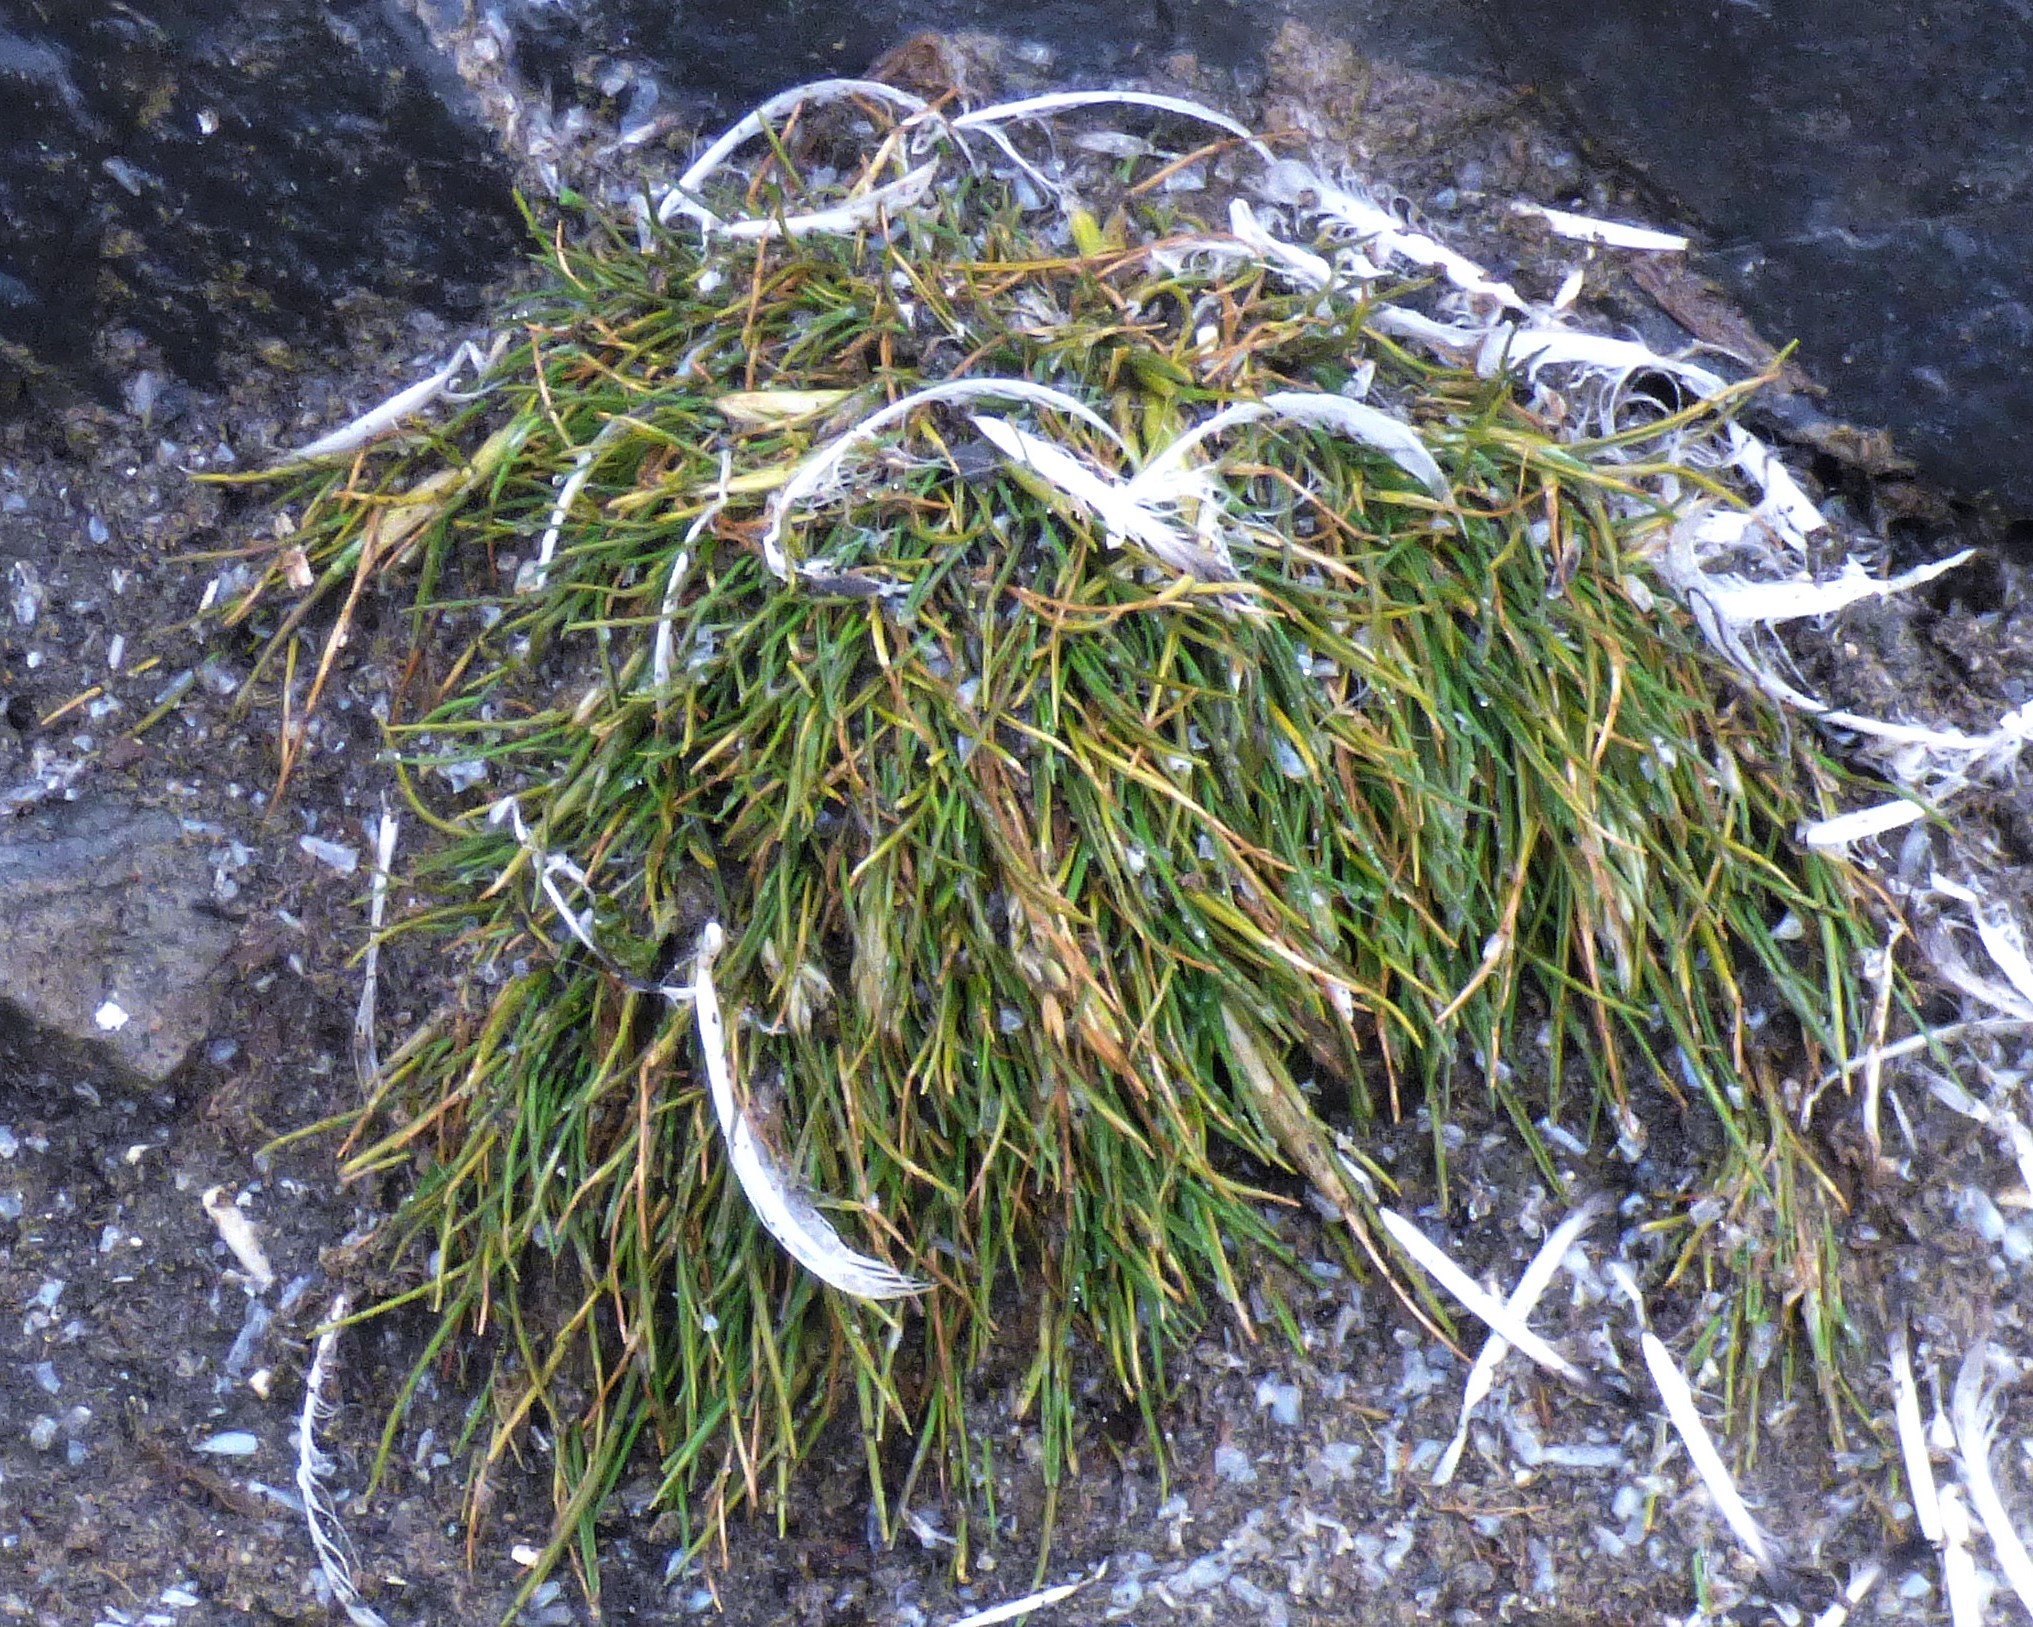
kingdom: Plantae
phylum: Tracheophyta
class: Liliopsida
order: Poales
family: Poaceae
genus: Deschampsia
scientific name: Deschampsia antarctica
